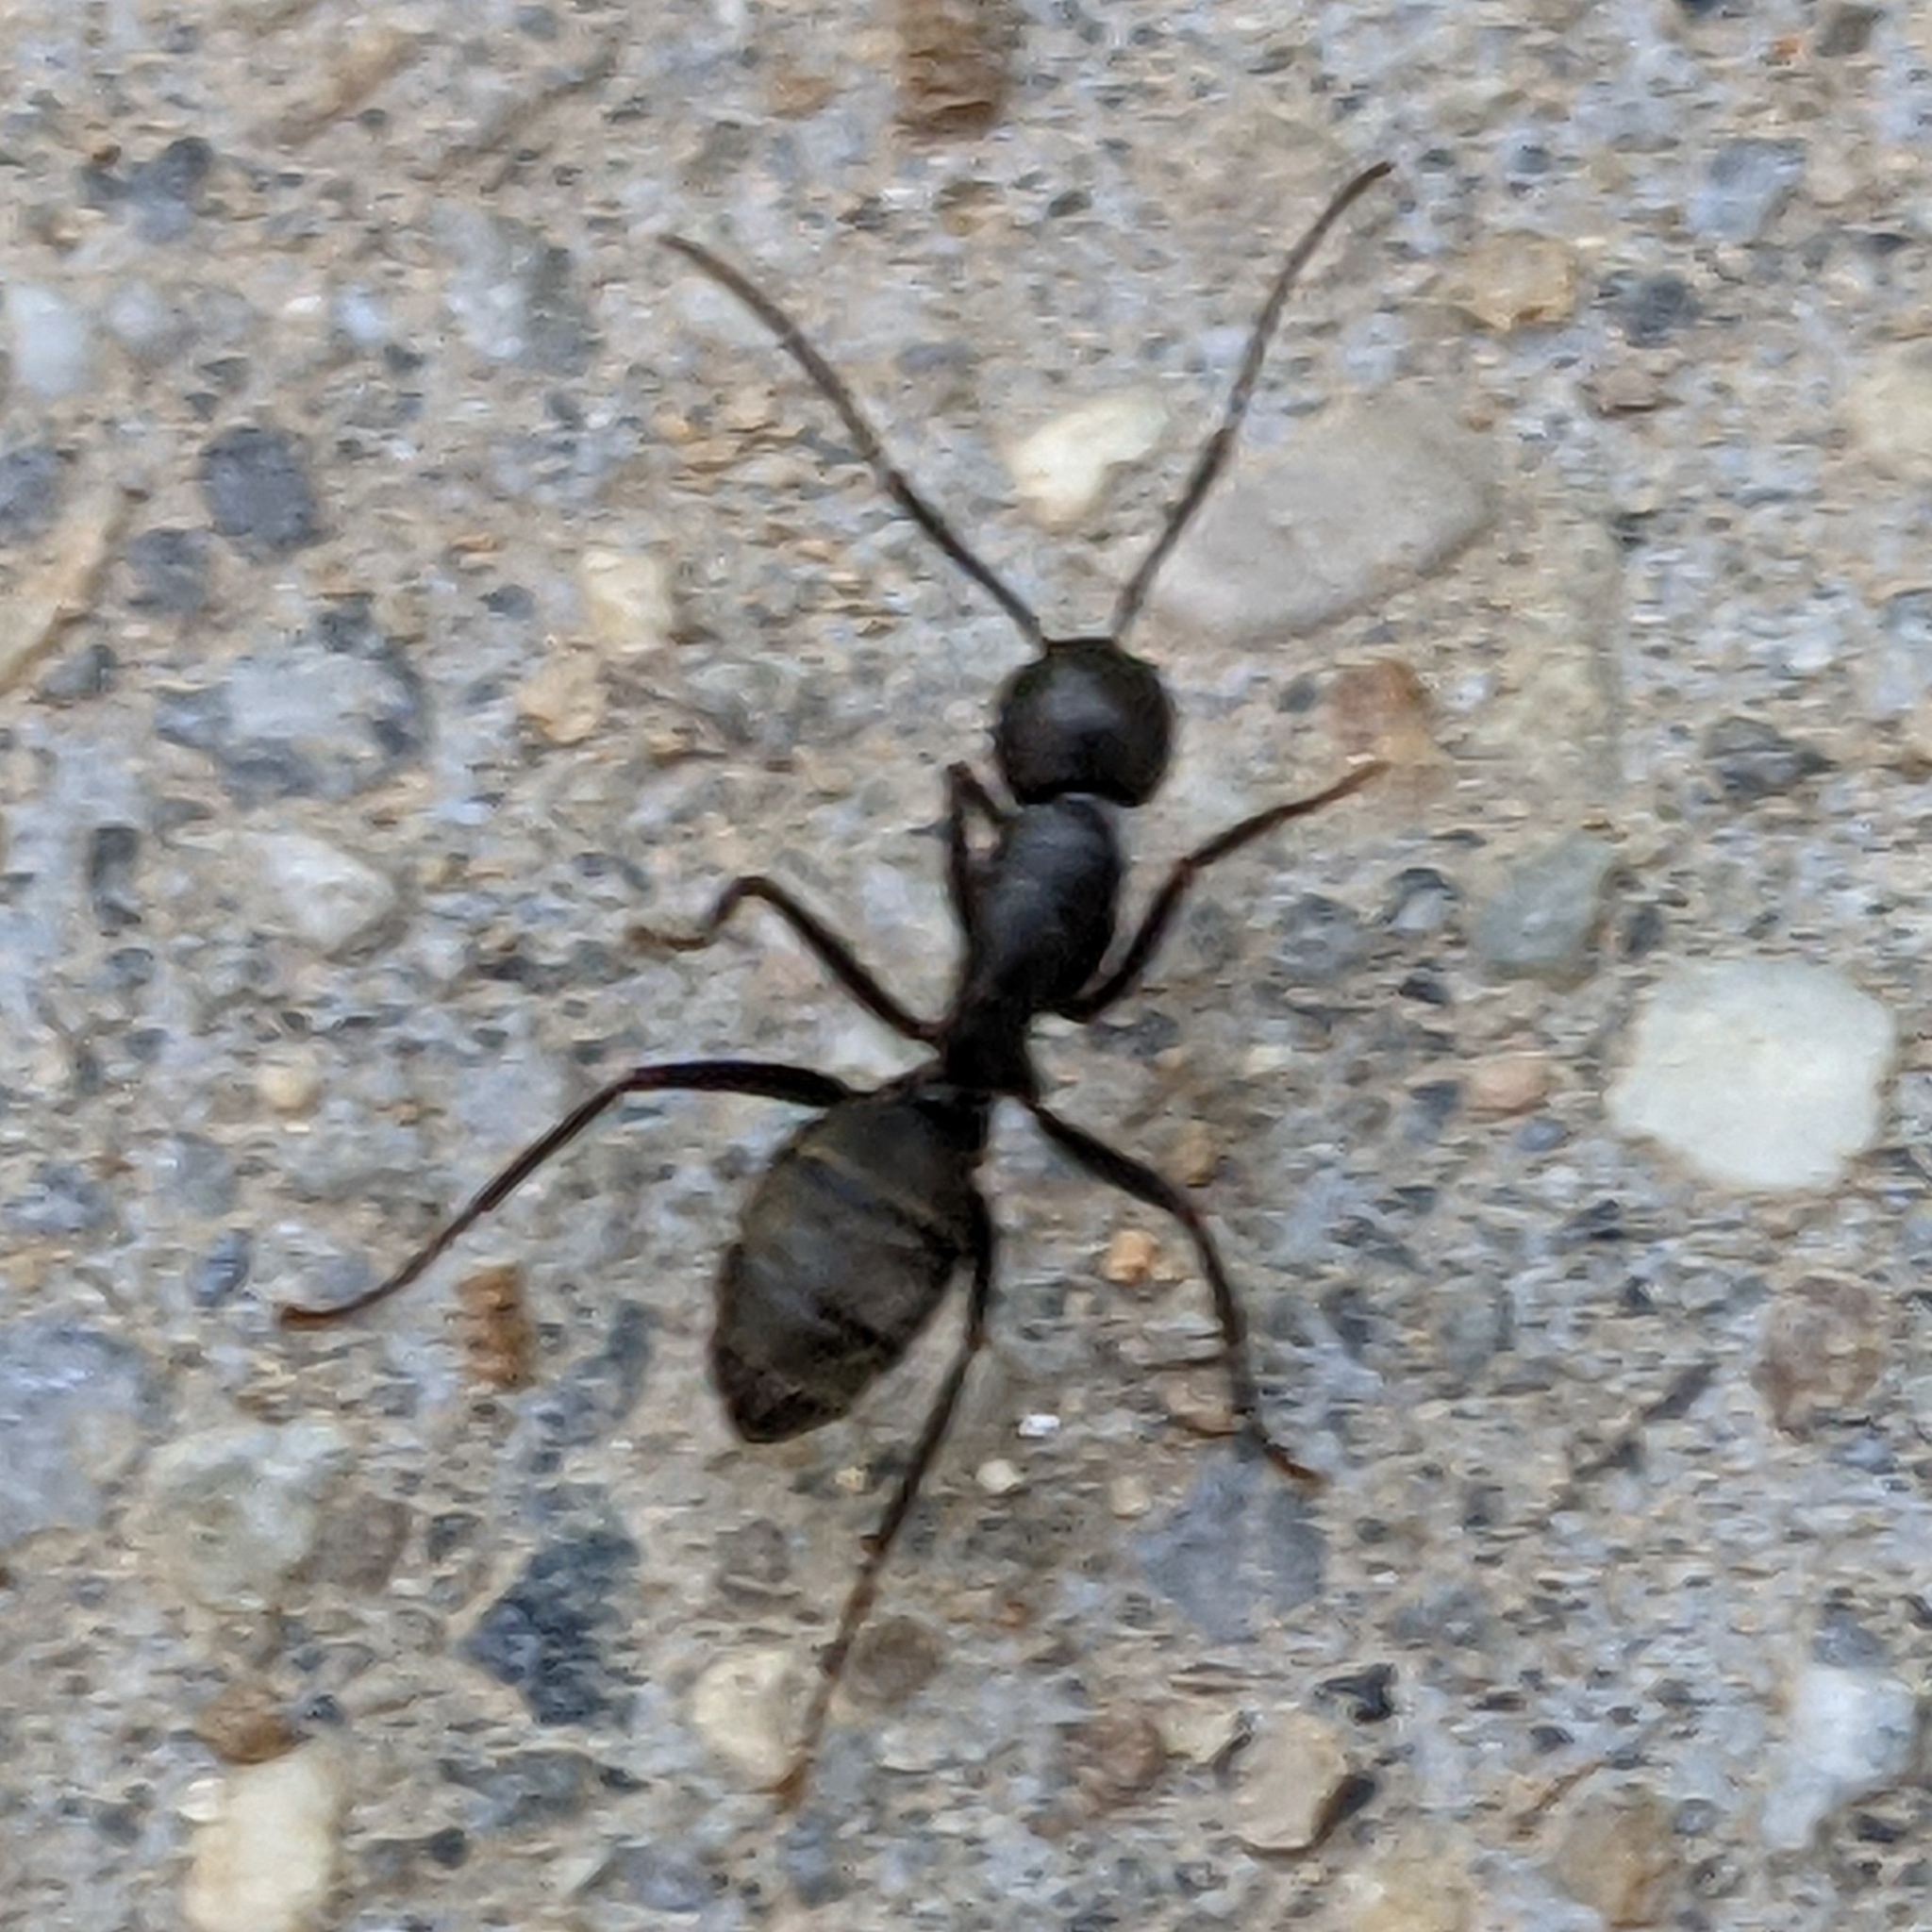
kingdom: Animalia
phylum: Arthropoda
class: Insecta
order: Hymenoptera
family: Formicidae
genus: Camponotus
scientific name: Camponotus pennsylvanicus
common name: Black carpenter ant
